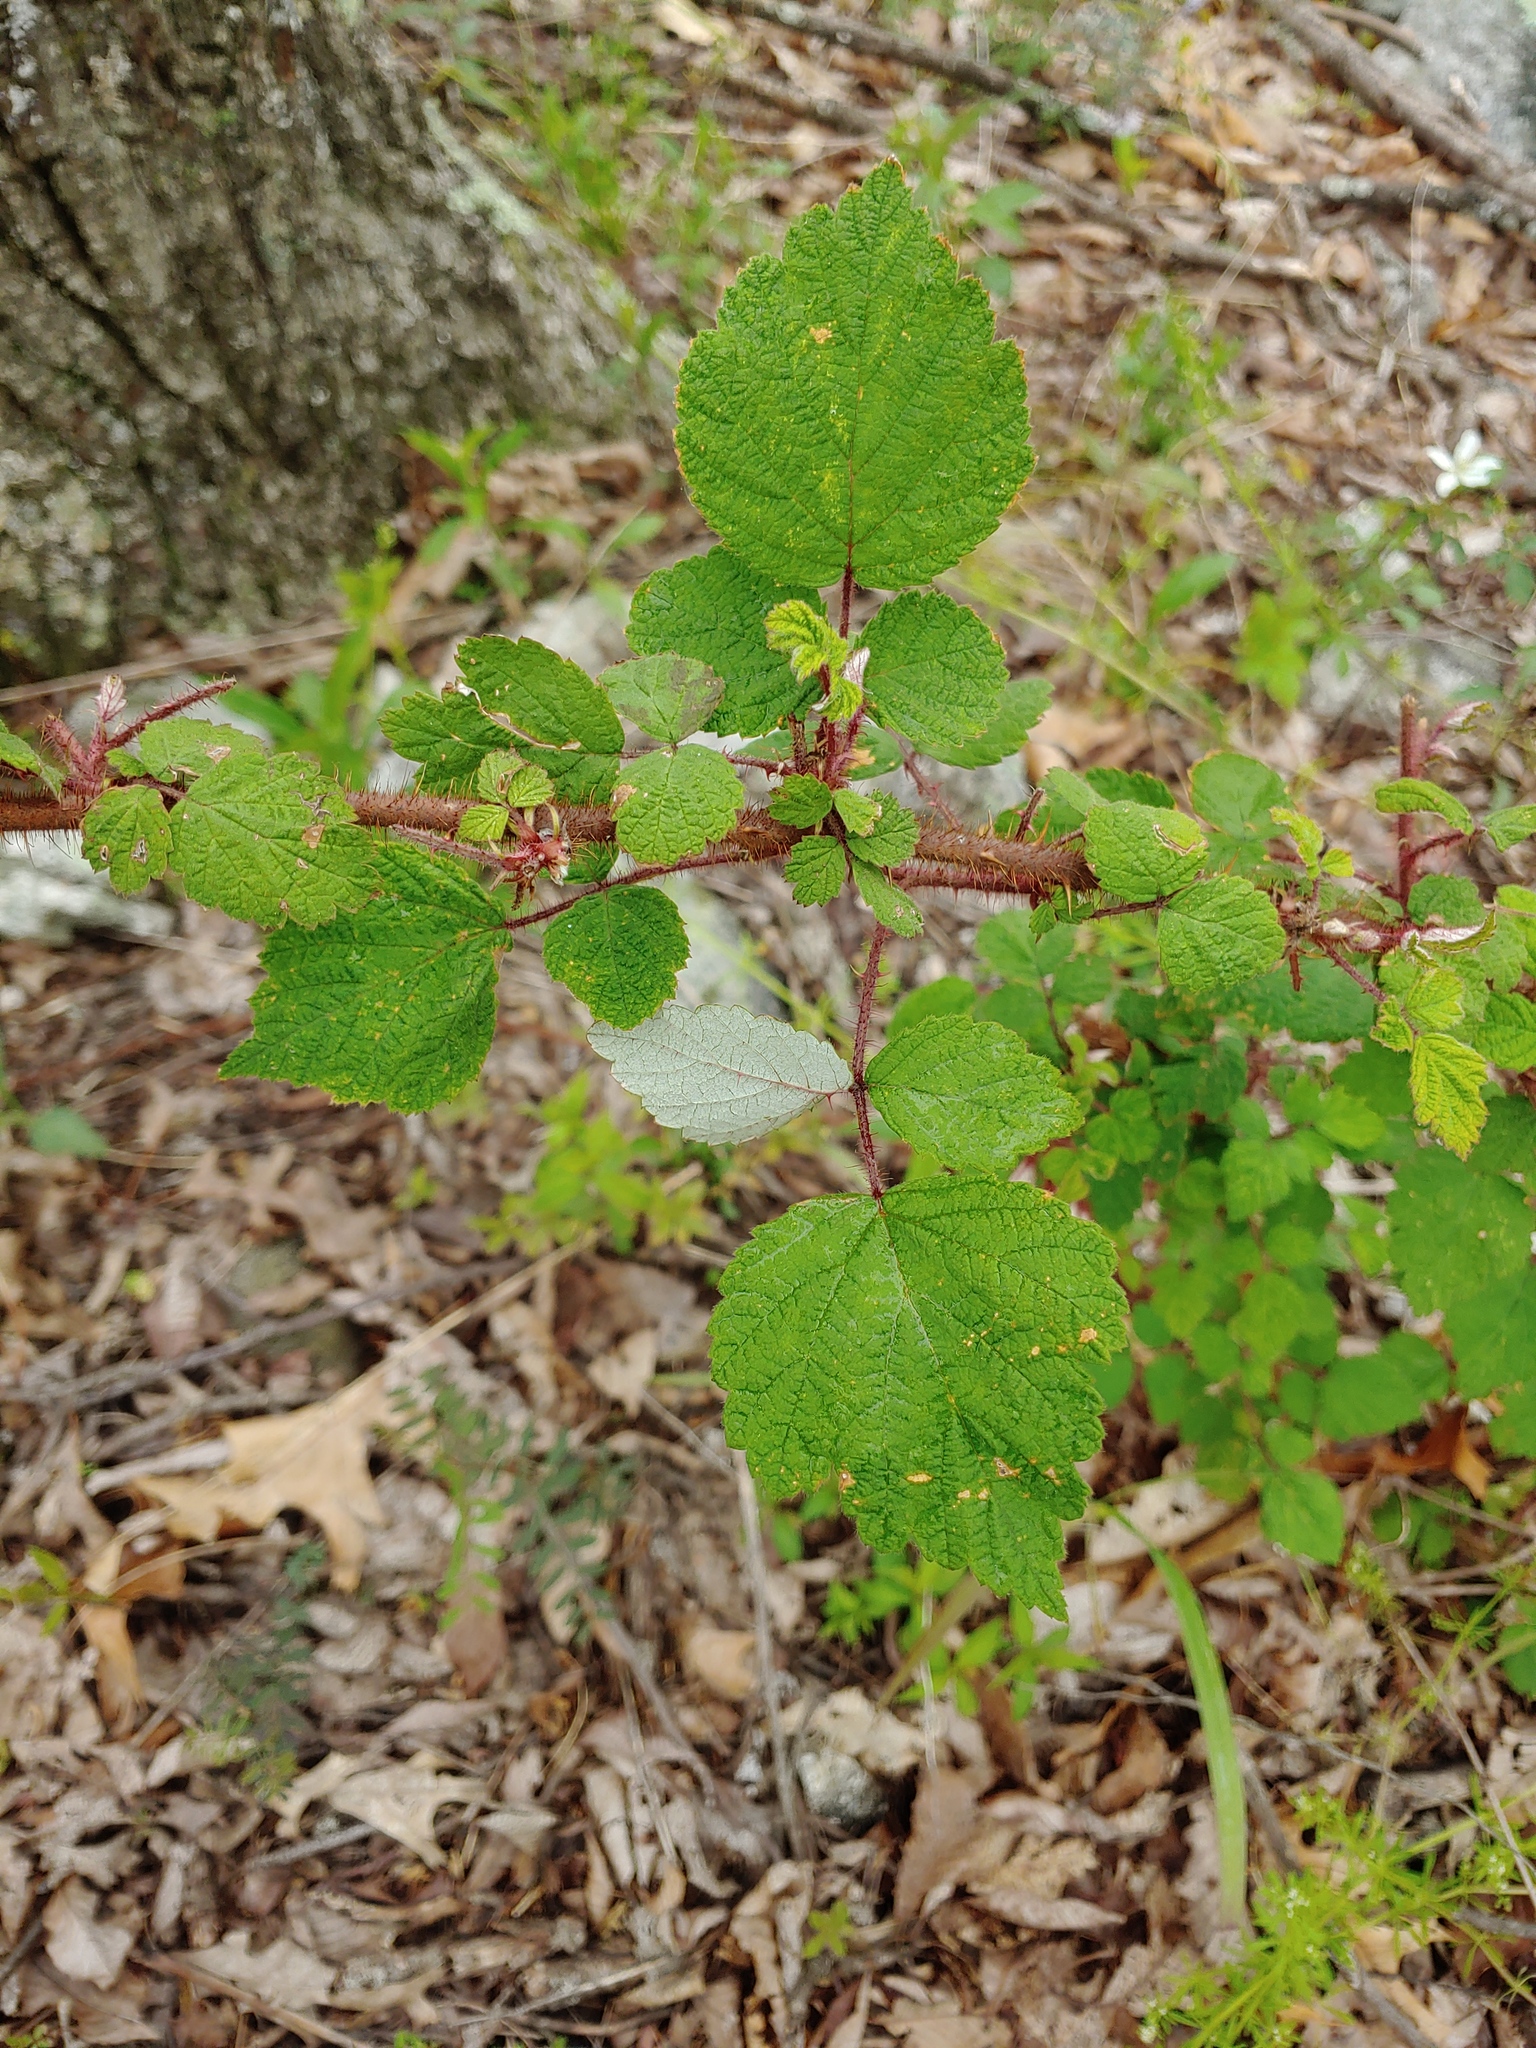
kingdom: Plantae
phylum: Tracheophyta
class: Magnoliopsida
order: Rosales
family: Rosaceae
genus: Rubus
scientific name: Rubus phoenicolasius
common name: Japanese wineberry
